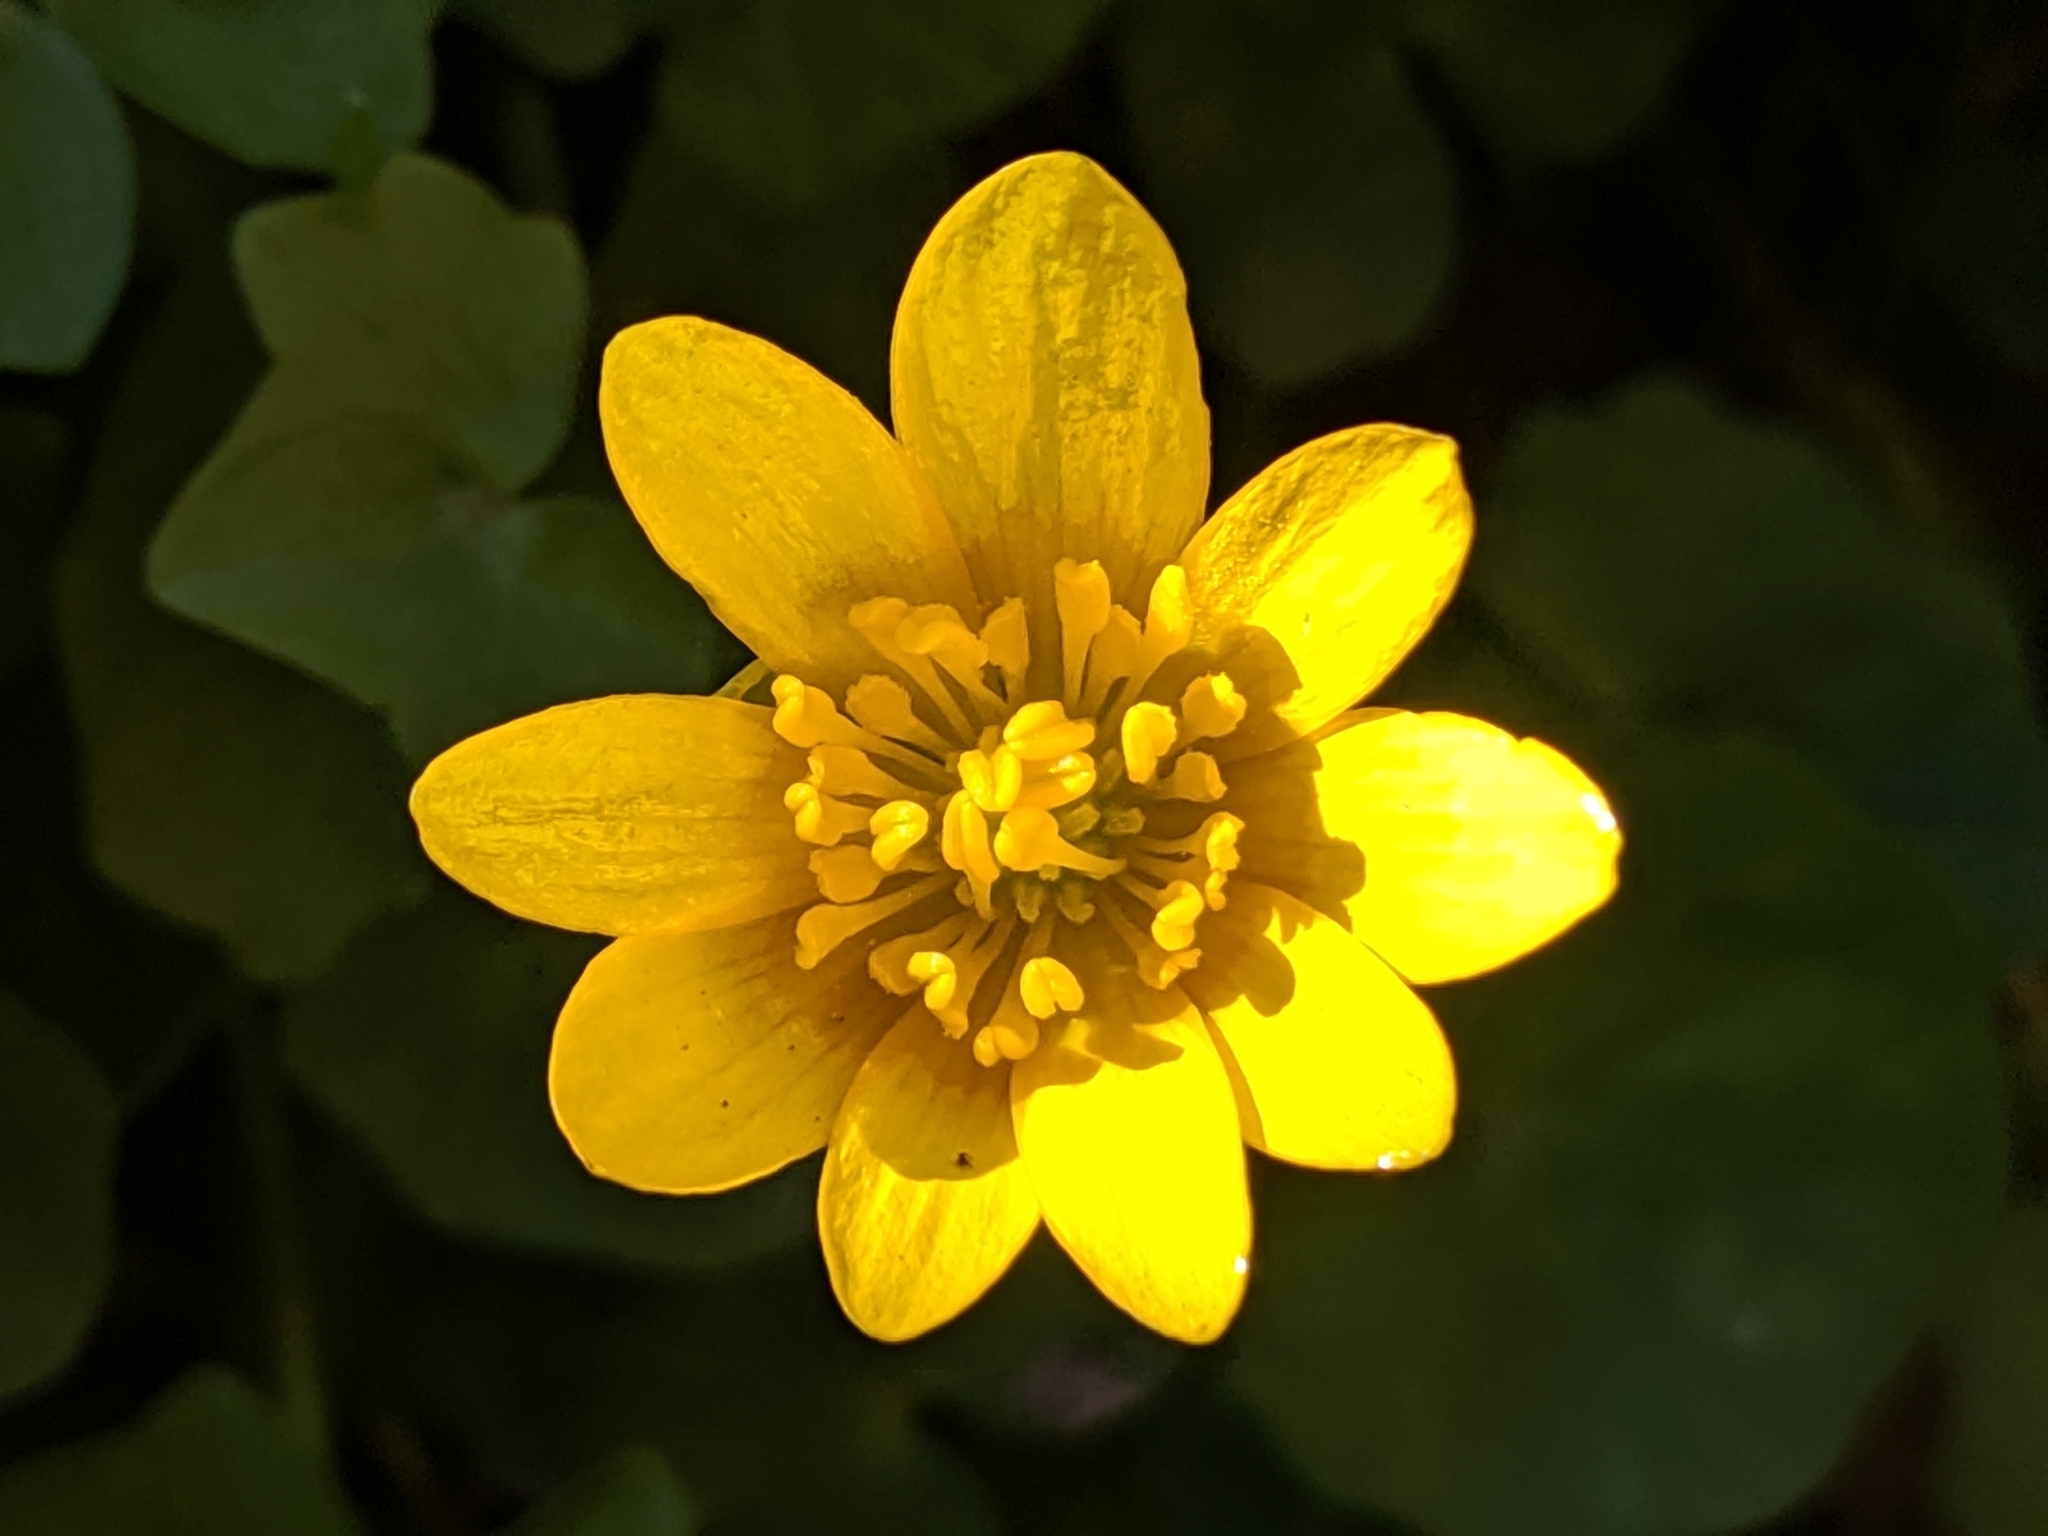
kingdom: Plantae
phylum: Tracheophyta
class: Magnoliopsida
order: Ranunculales
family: Ranunculaceae
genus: Ficaria
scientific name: Ficaria verna
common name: Lesser celandine
